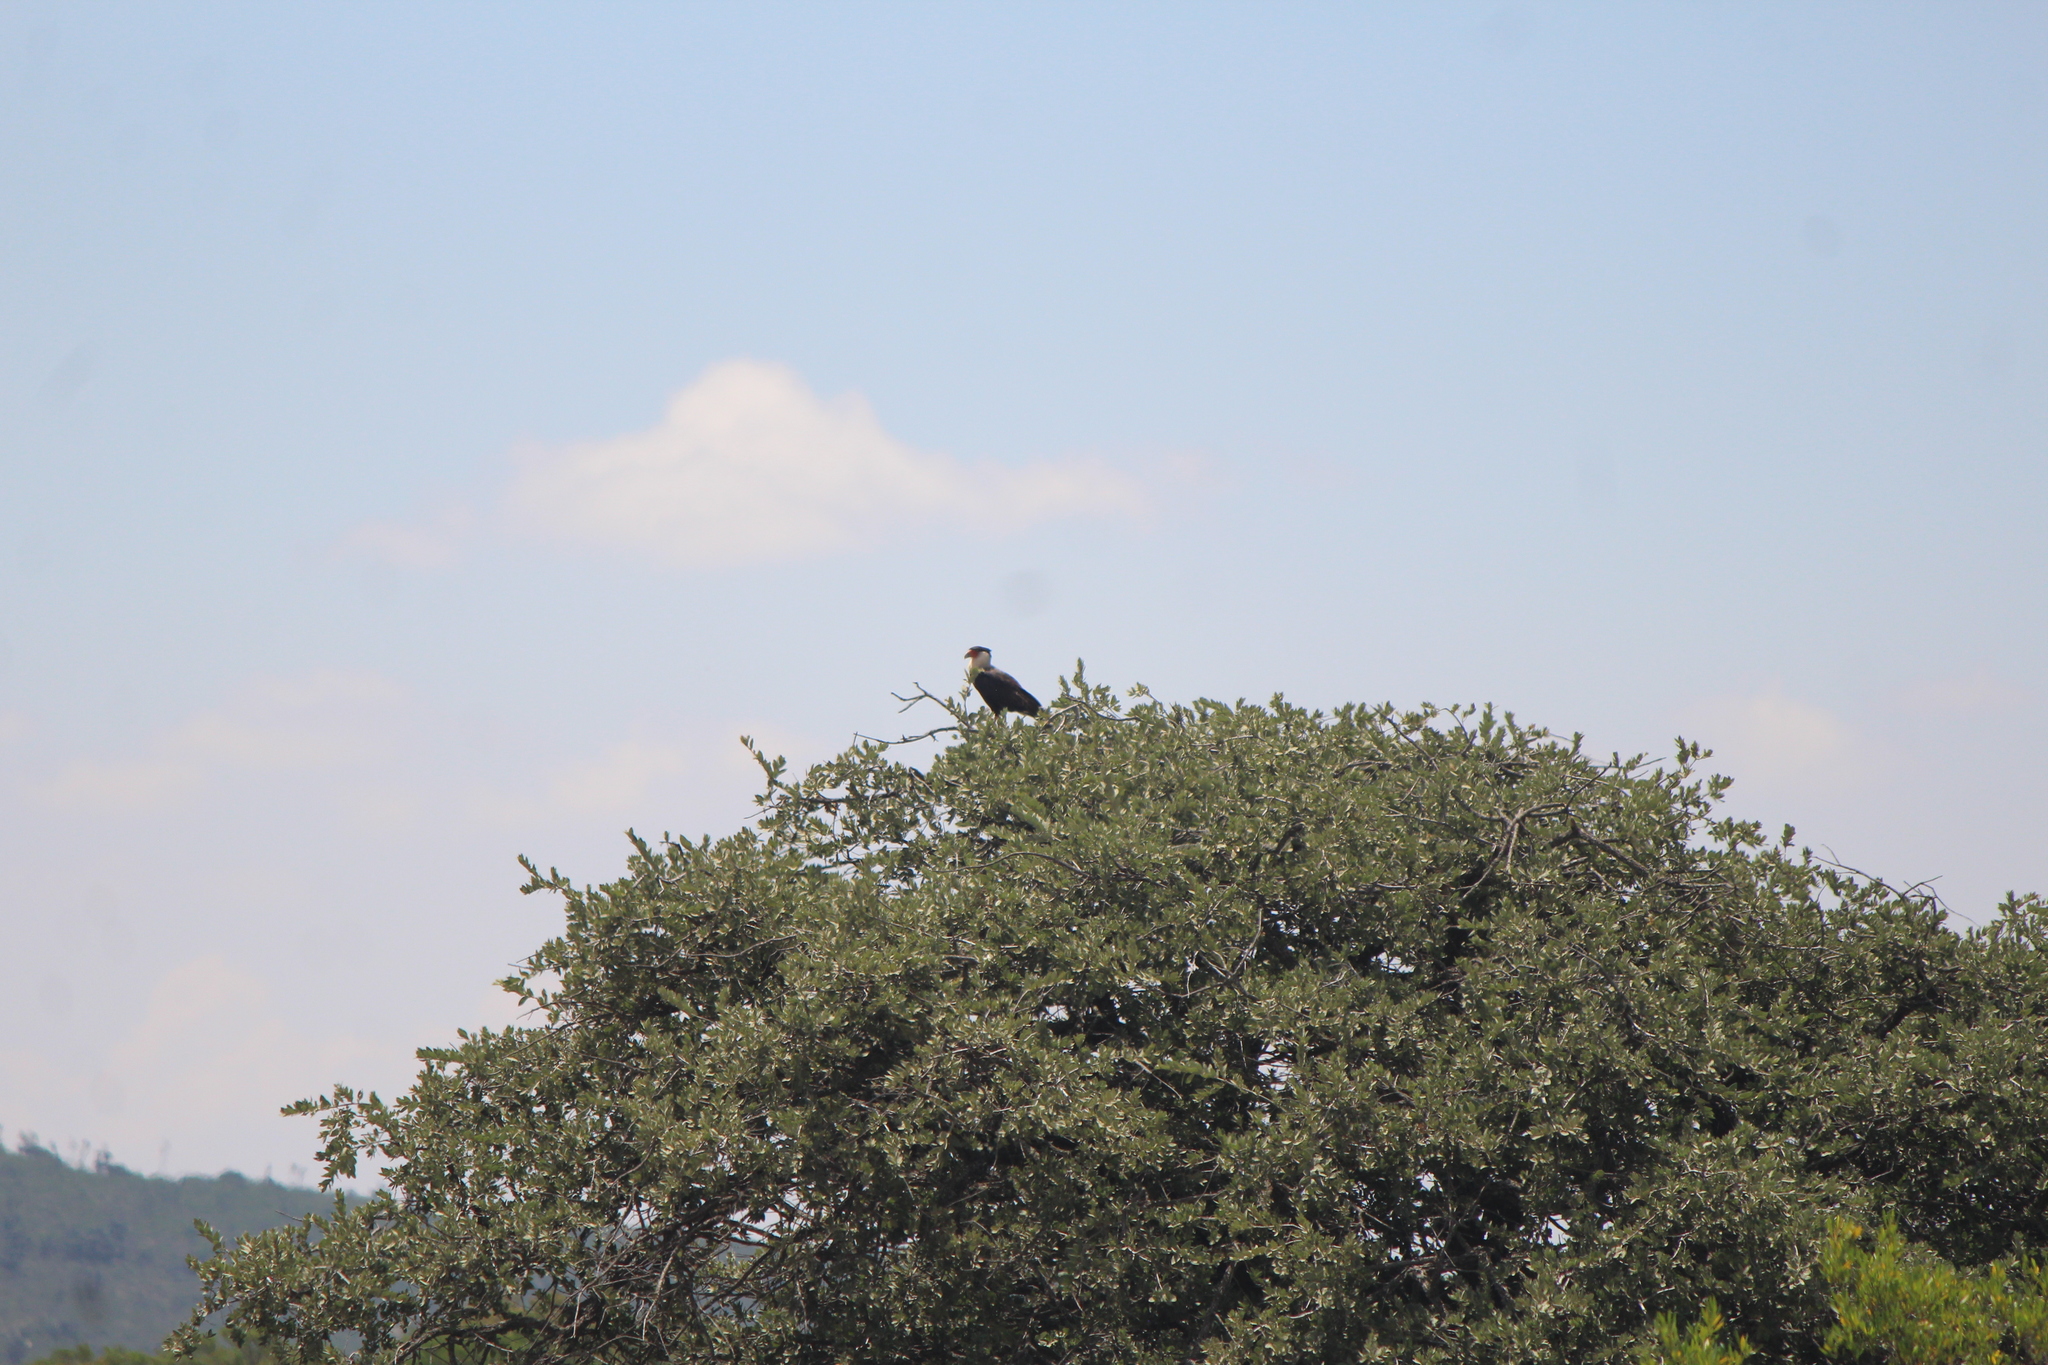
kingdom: Animalia
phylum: Chordata
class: Aves
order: Falconiformes
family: Falconidae
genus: Caracara
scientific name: Caracara plancus
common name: Southern caracara
